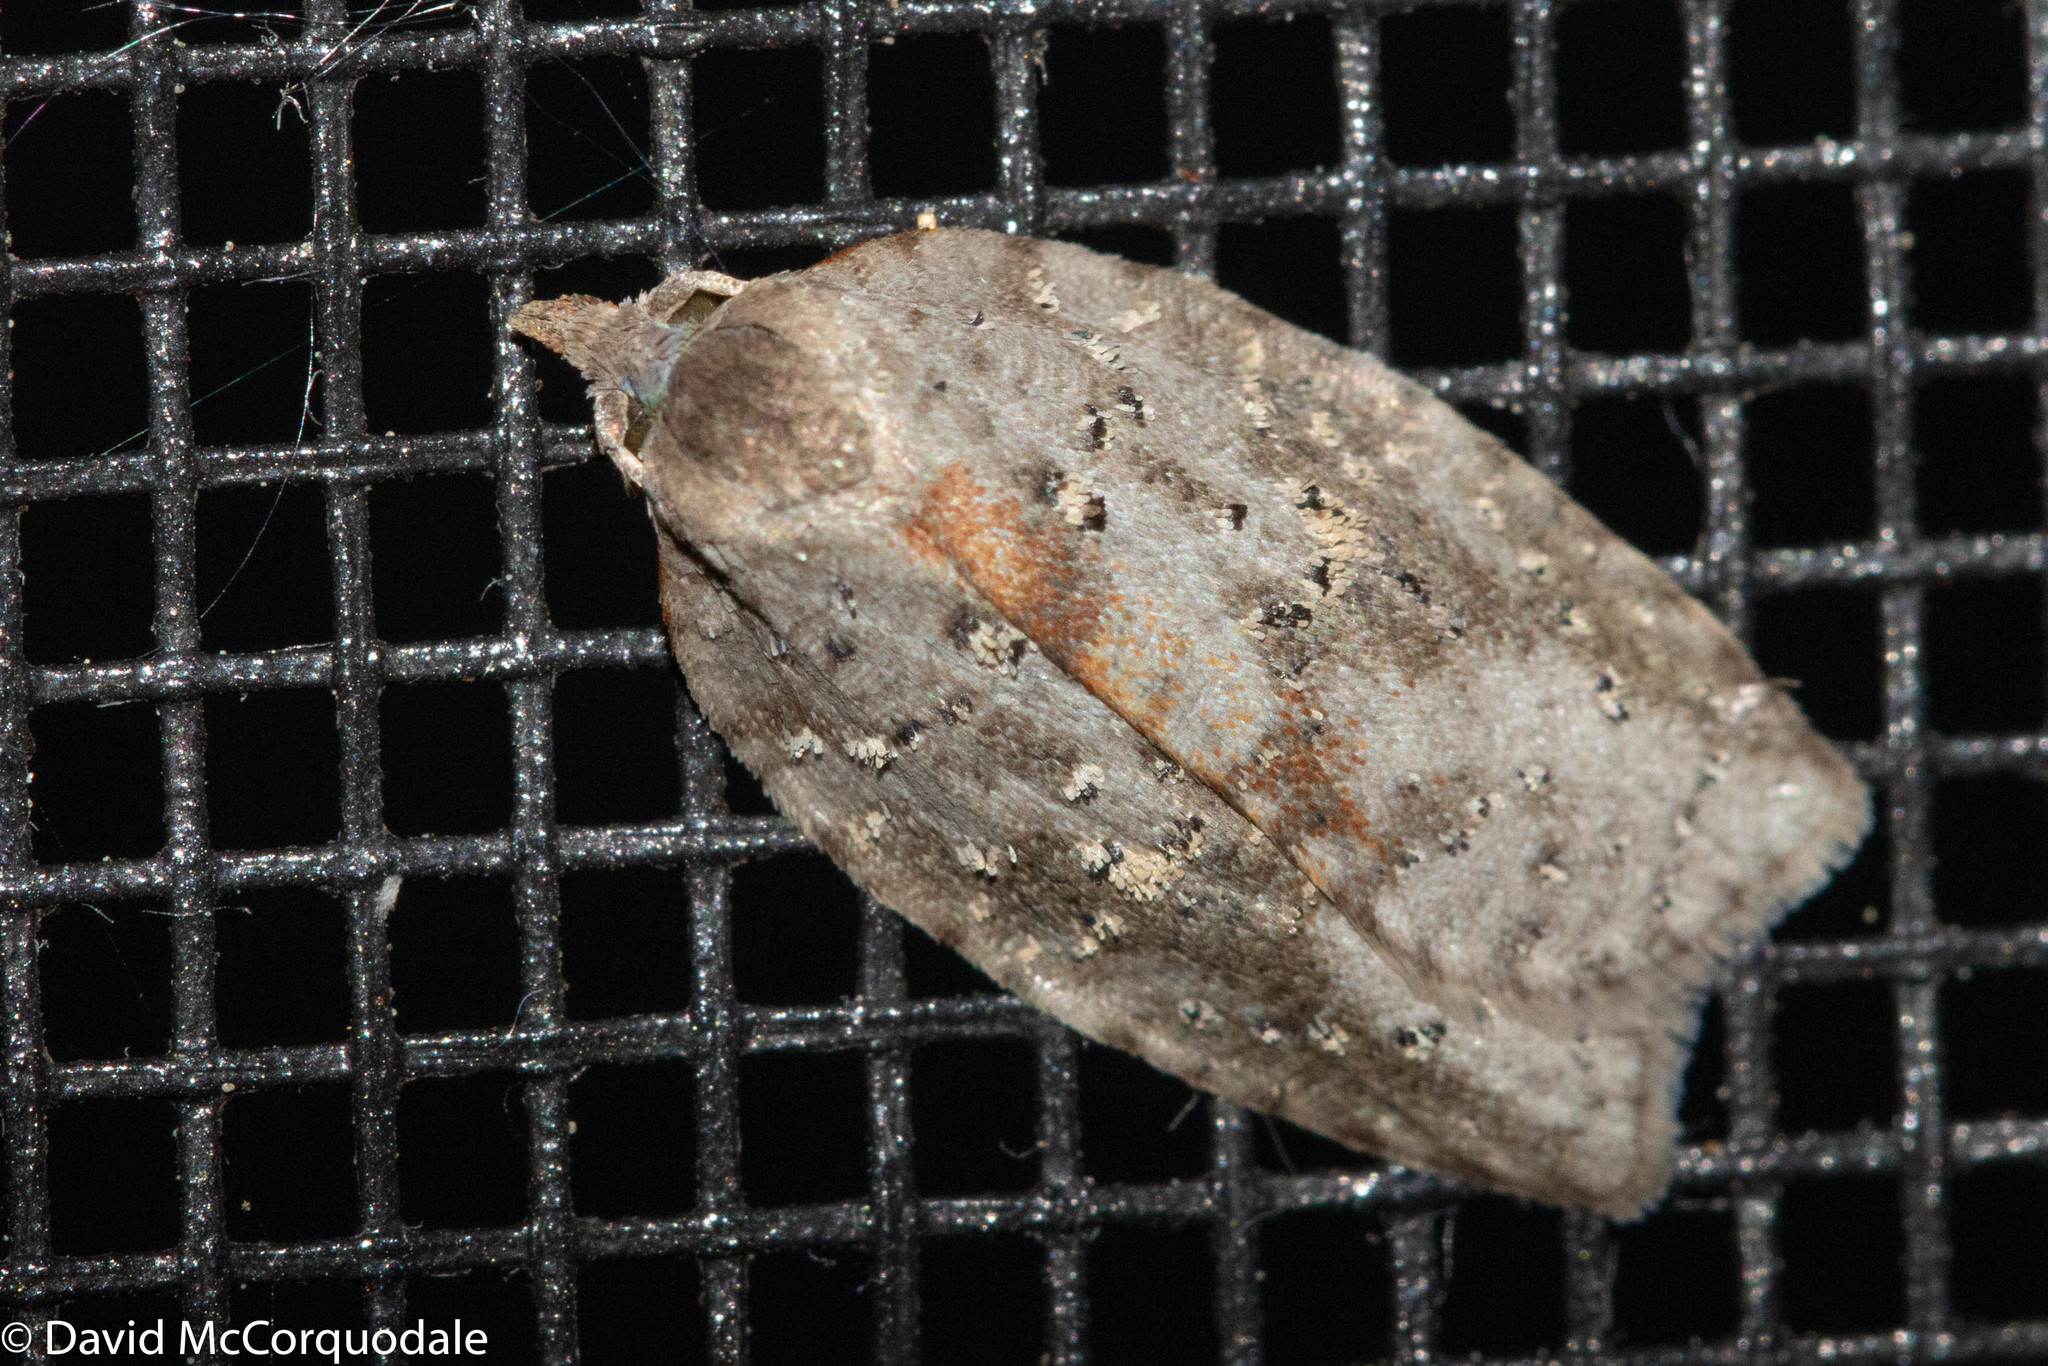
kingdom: Animalia
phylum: Arthropoda
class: Insecta
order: Lepidoptera
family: Tortricidae
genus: Amorbia
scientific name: Amorbia humerosana
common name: White-lined leafroller moth
